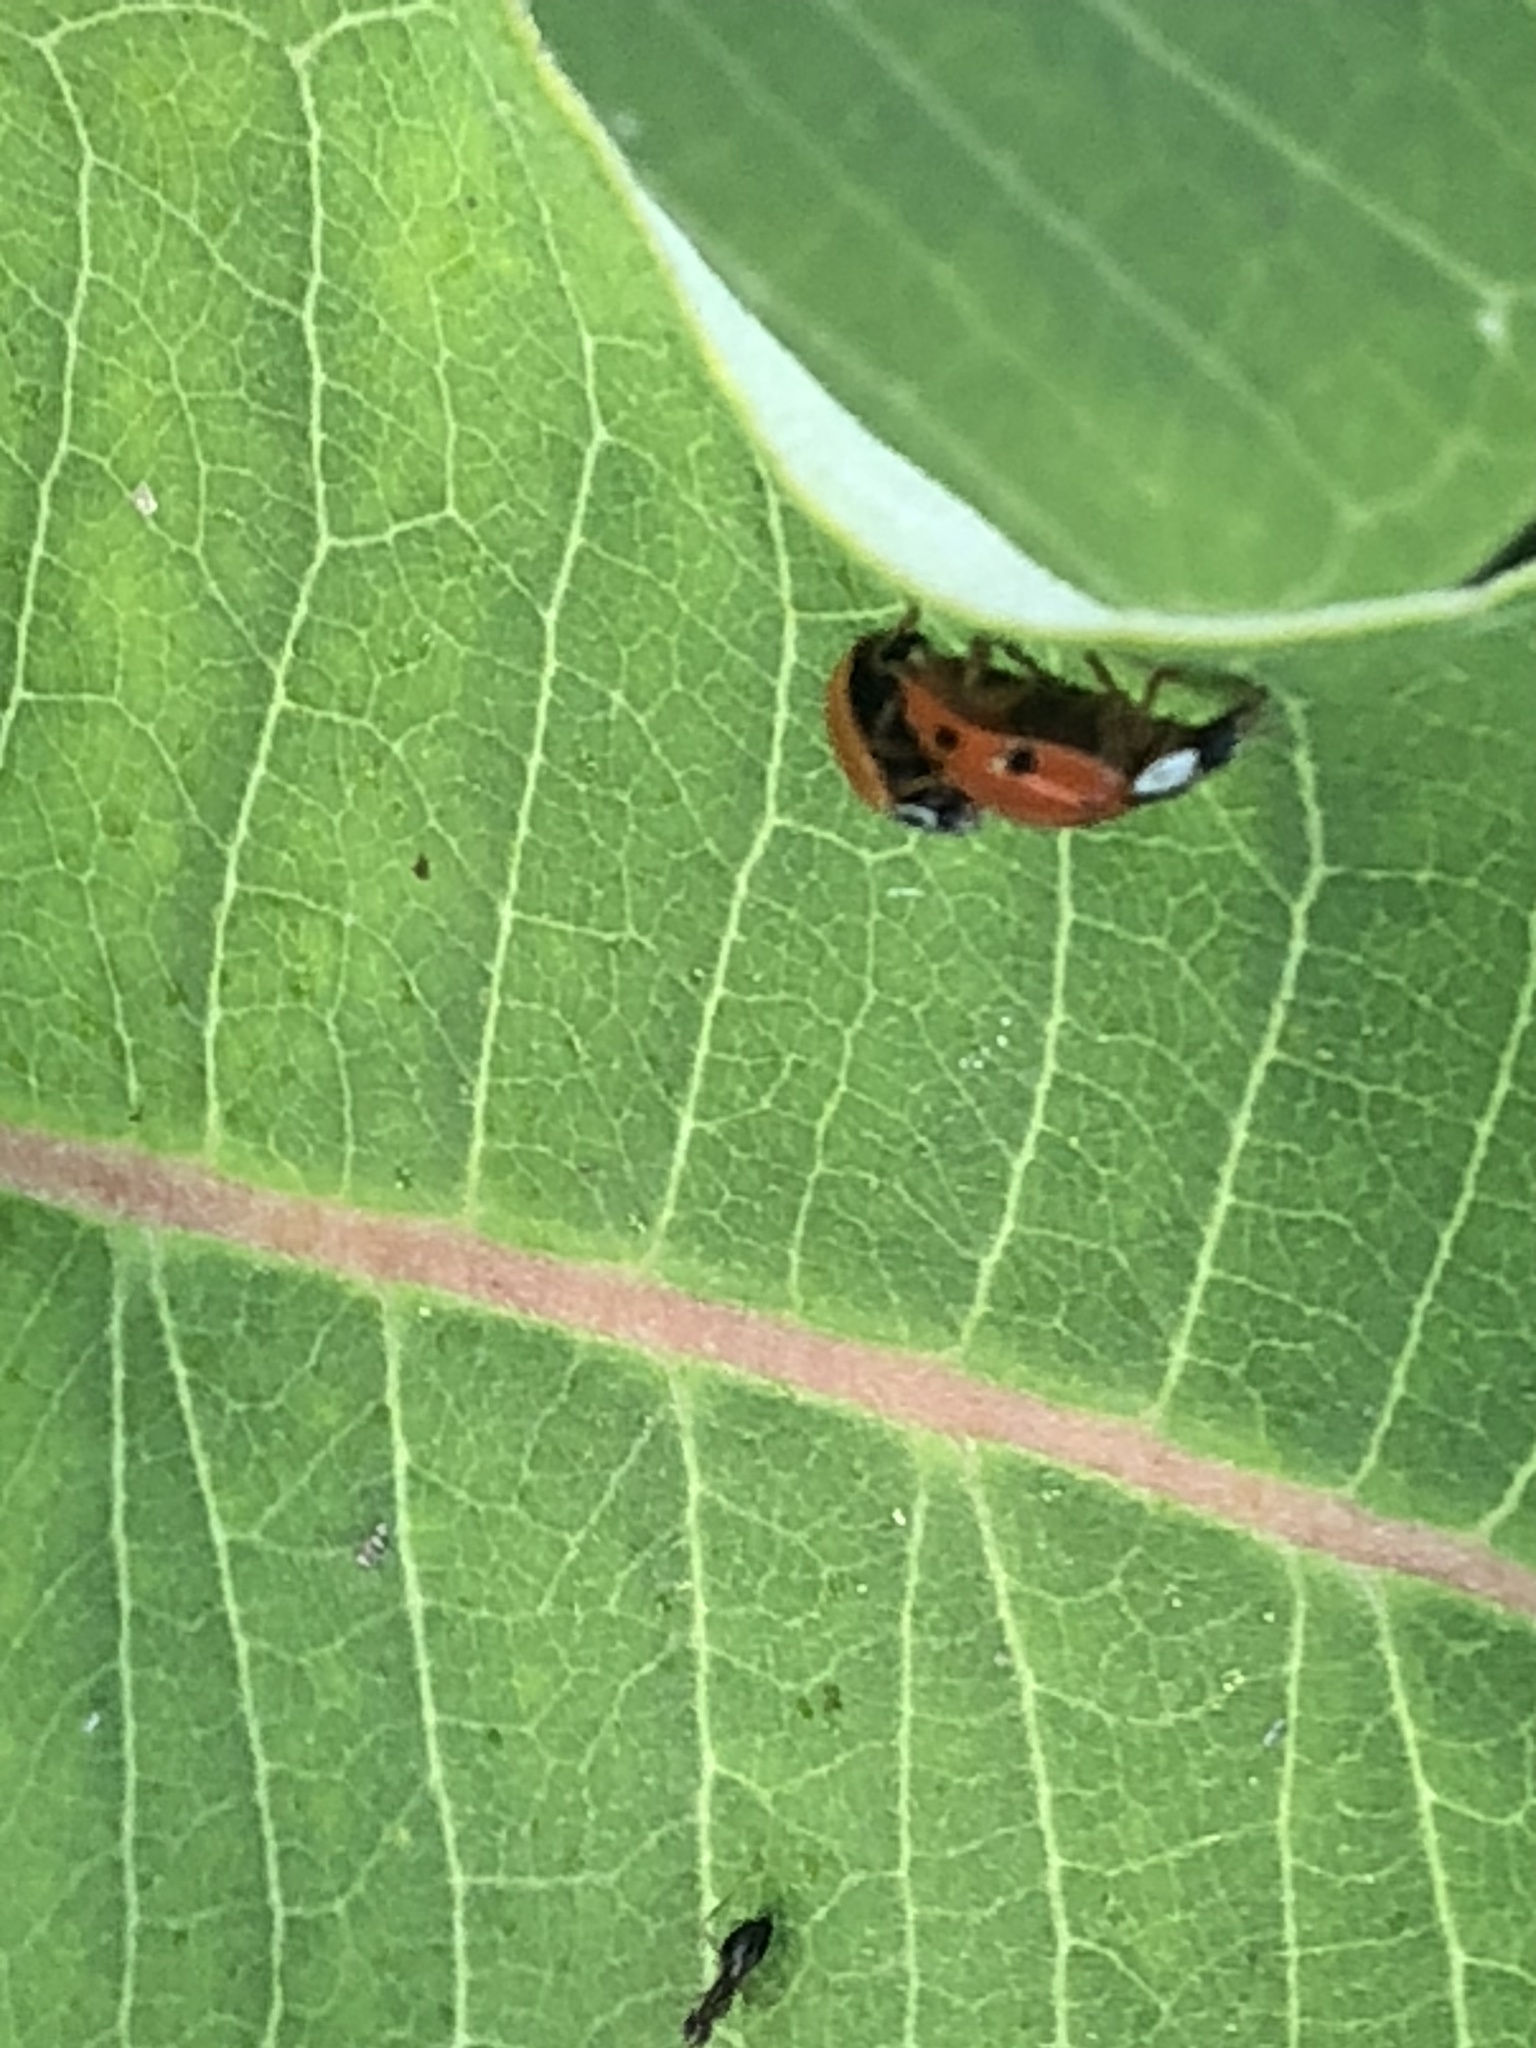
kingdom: Animalia
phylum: Arthropoda
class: Insecta
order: Coleoptera
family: Coccinellidae
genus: Cycloneda
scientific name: Cycloneda munda
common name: Polished lady beetle
